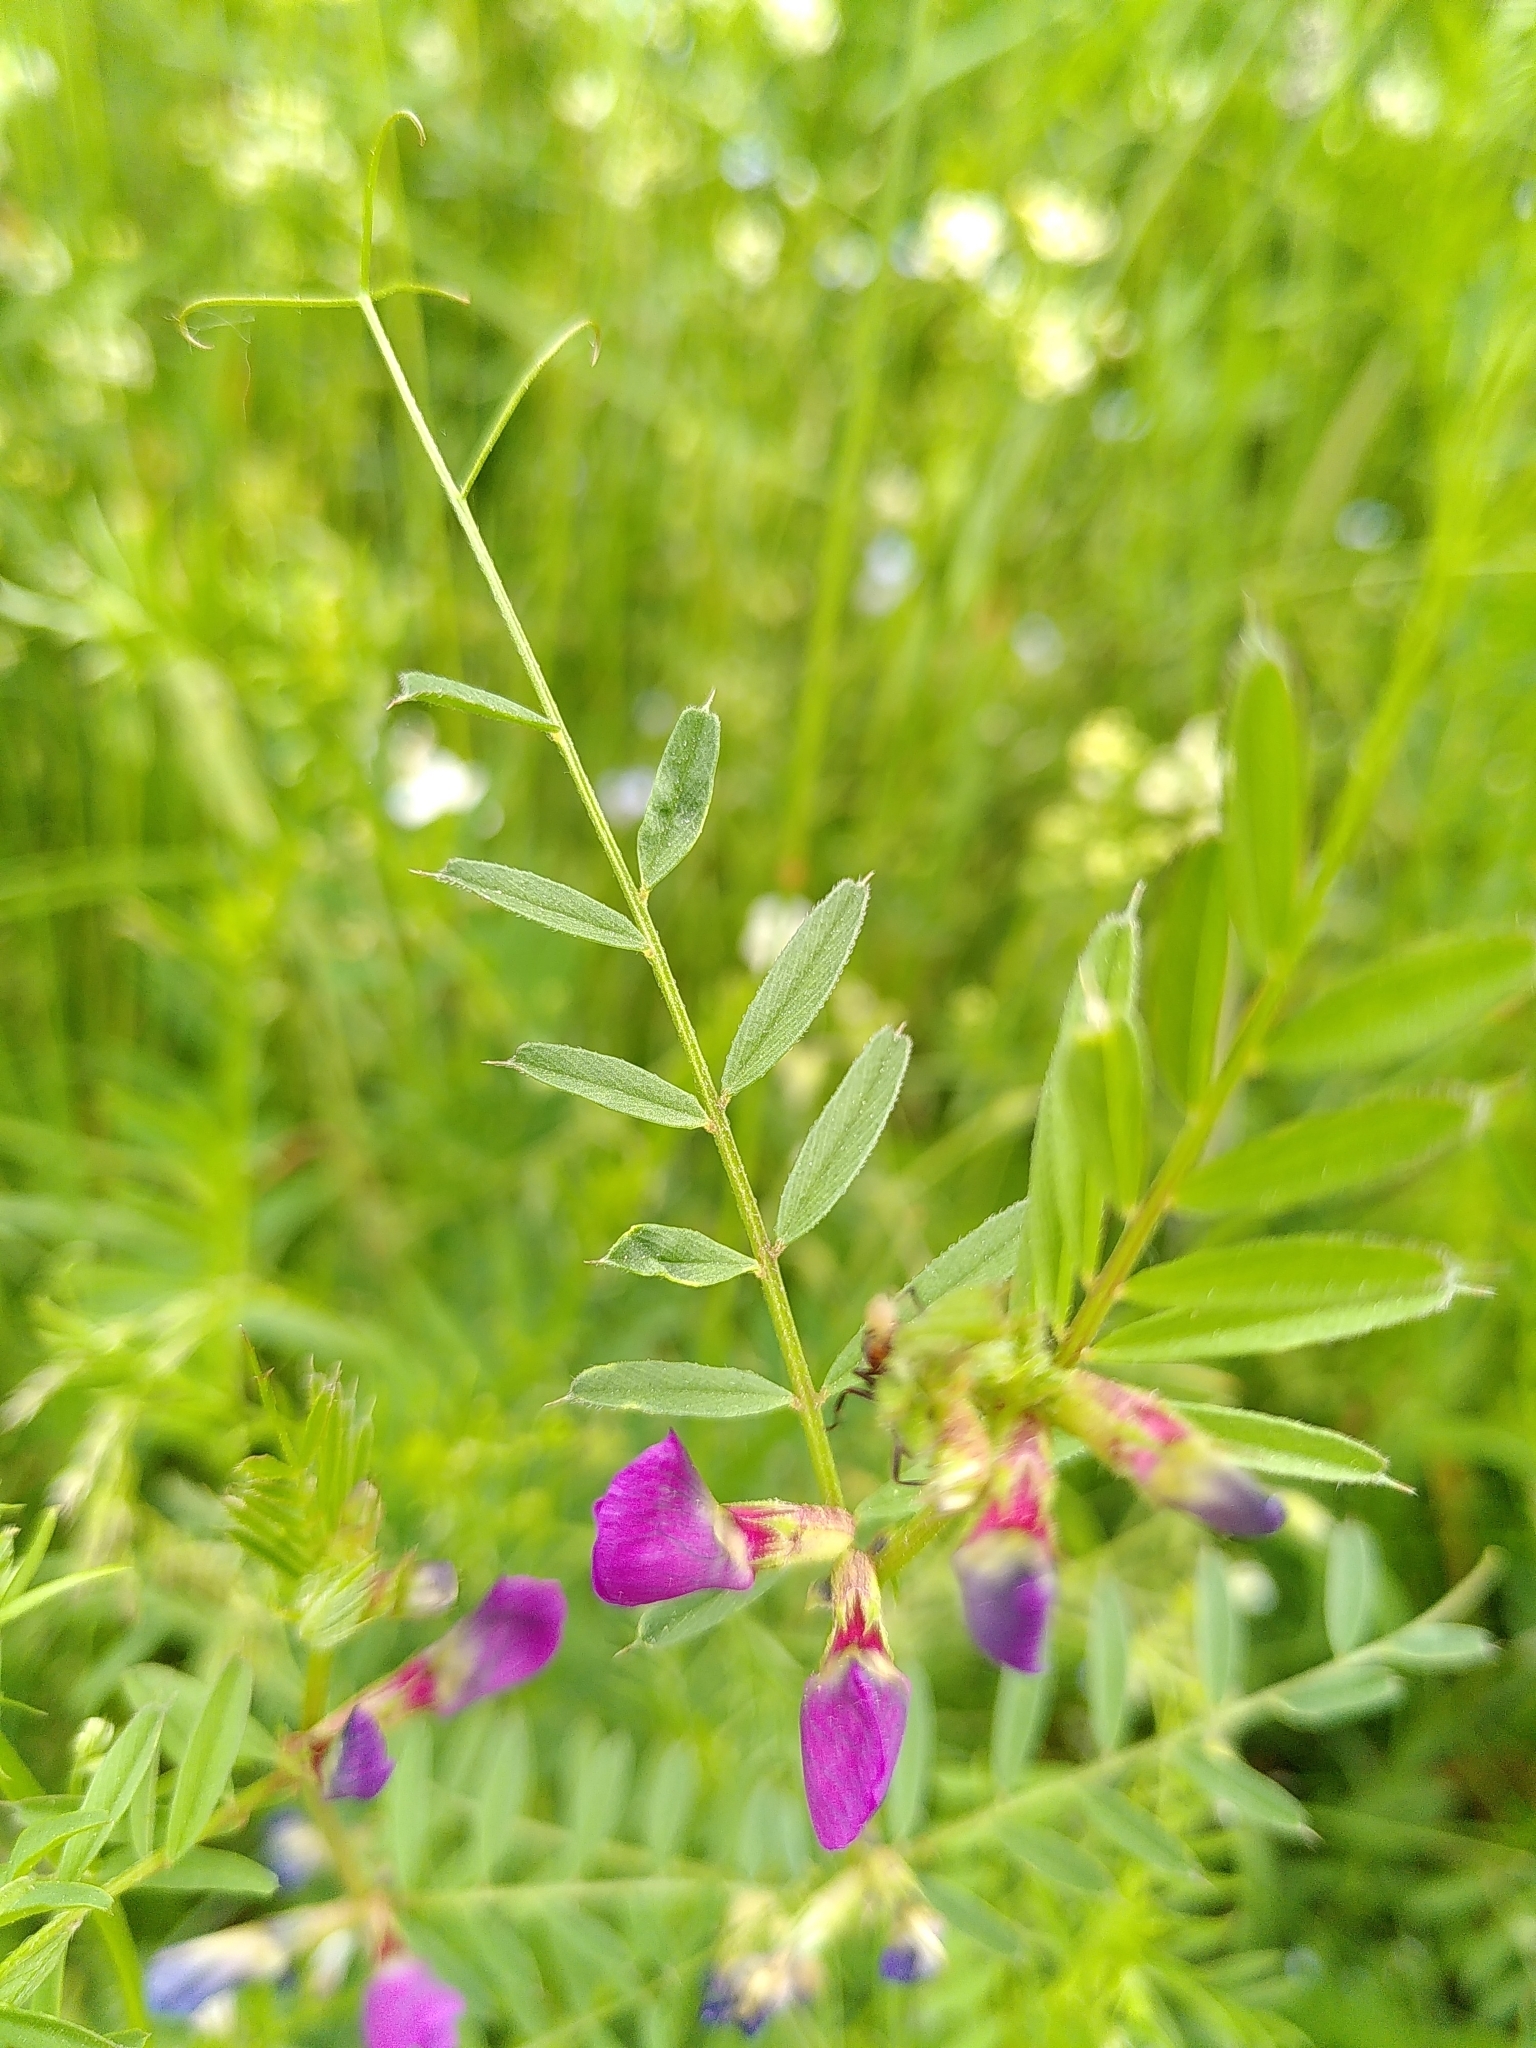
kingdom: Plantae
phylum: Tracheophyta
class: Magnoliopsida
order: Fabales
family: Fabaceae
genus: Vicia
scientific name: Vicia sativa
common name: Garden vetch
